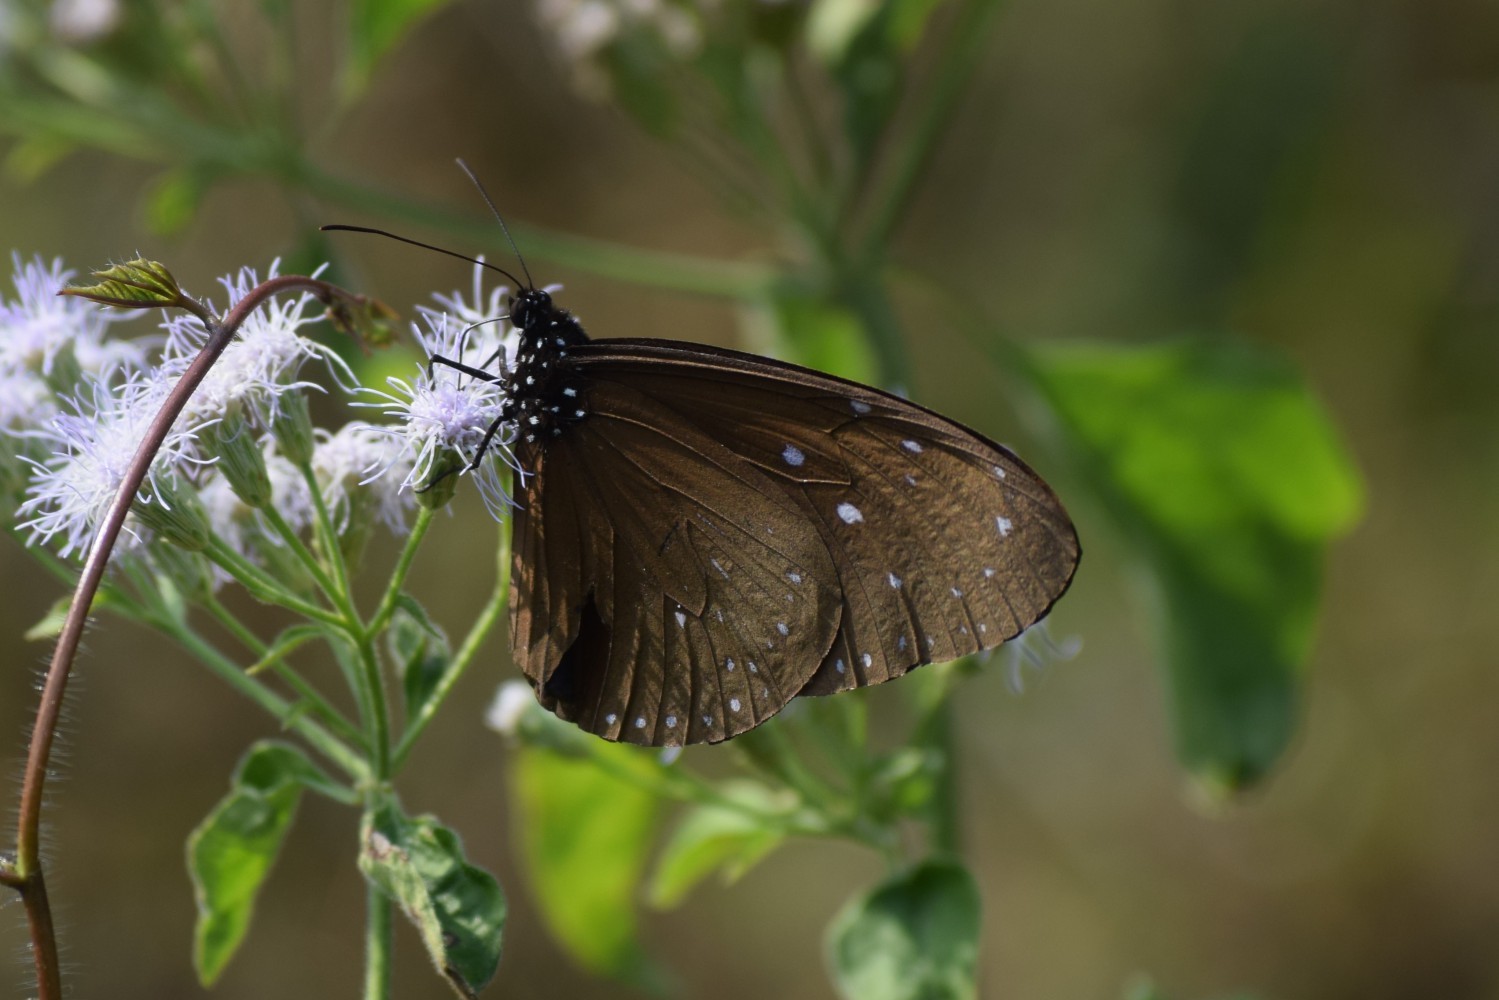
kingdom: Animalia
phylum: Arthropoda
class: Insecta
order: Lepidoptera
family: Nymphalidae
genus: Euploea
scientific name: Euploea mulciber
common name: Striped blue crow butterfly
